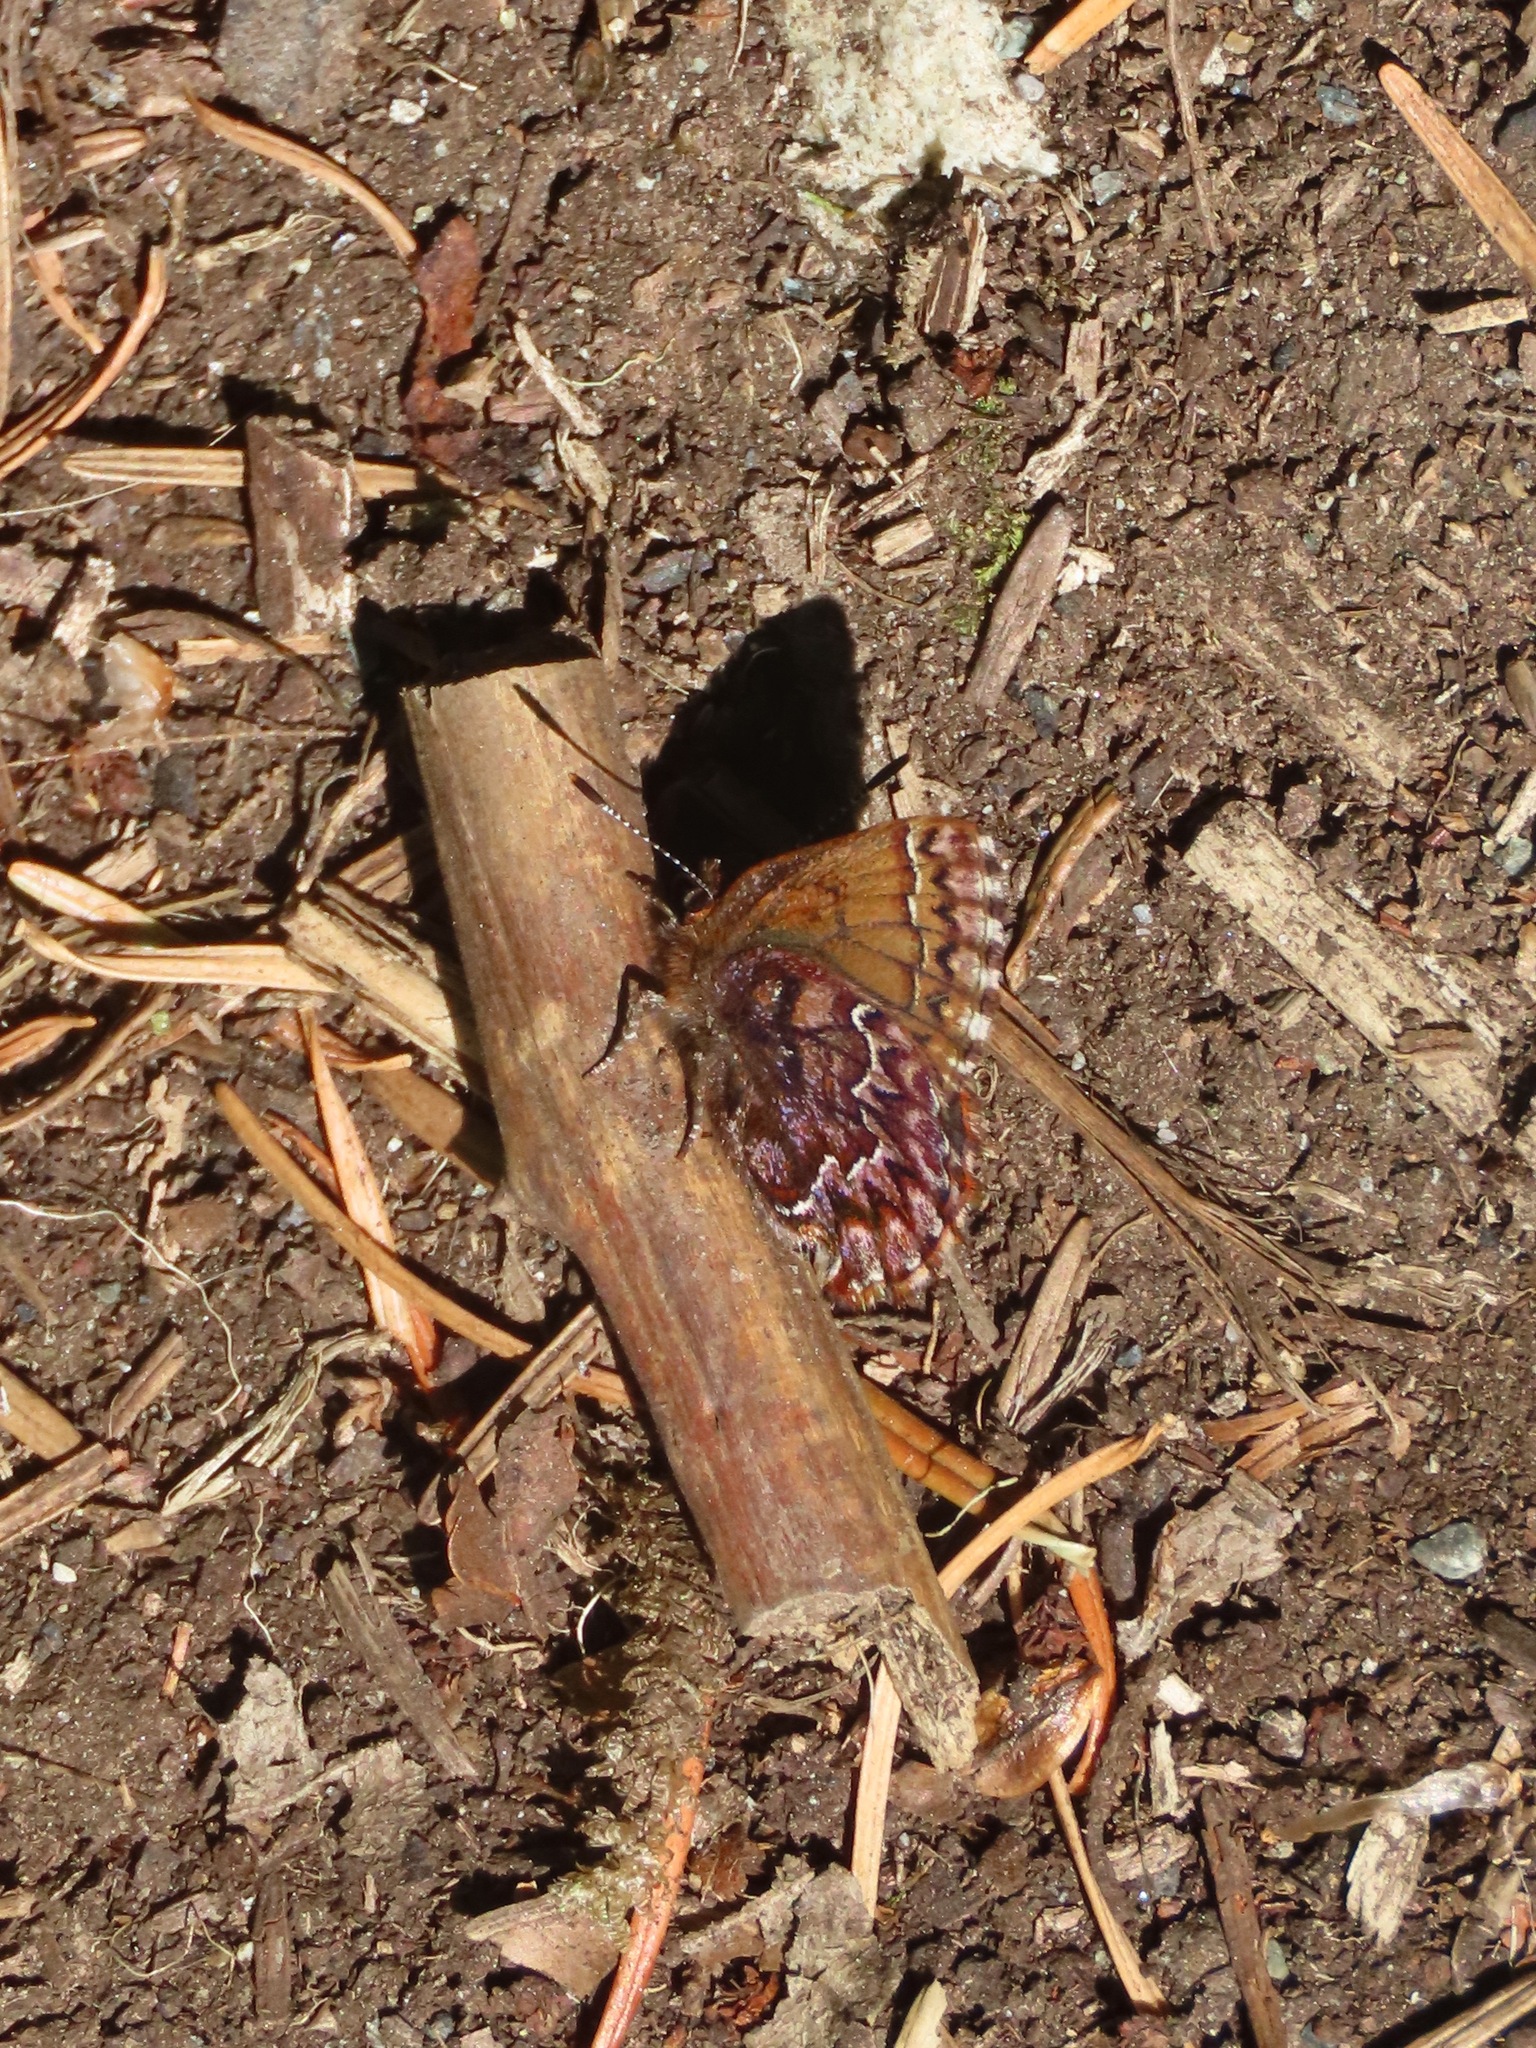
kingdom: Animalia
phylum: Arthropoda
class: Insecta
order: Lepidoptera
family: Lycaenidae
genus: Incisalia
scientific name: Incisalia eryphon
